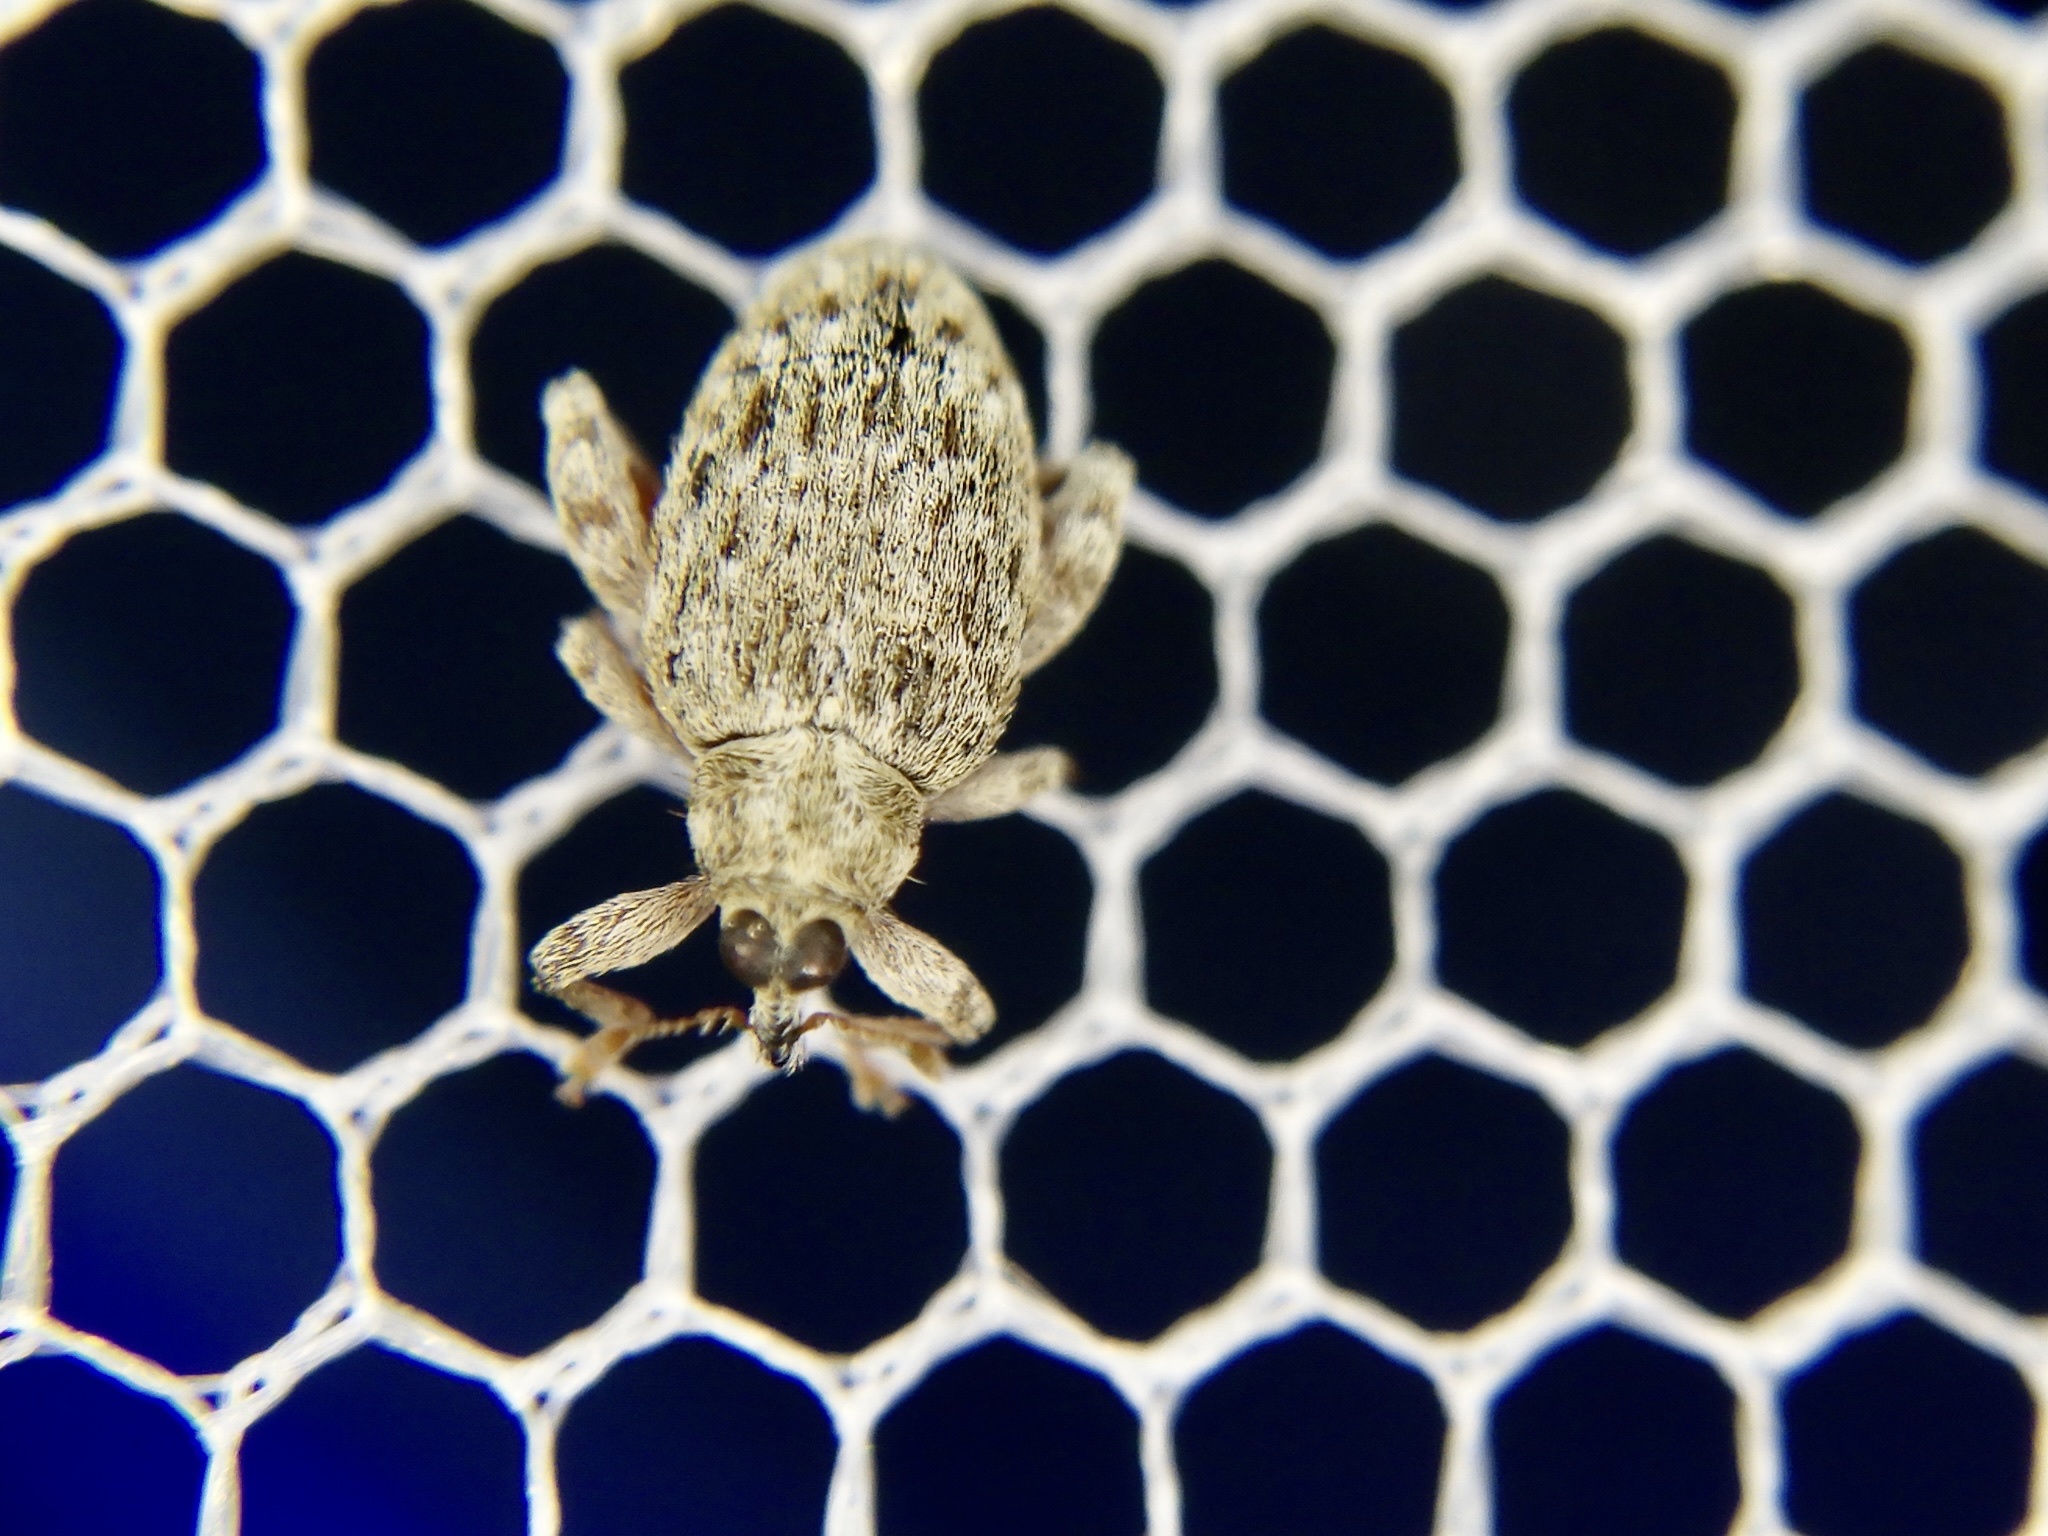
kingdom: Animalia
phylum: Arthropoda
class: Insecta
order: Coleoptera
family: Curculionidae
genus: Orchestes
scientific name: Orchestes koltzei
